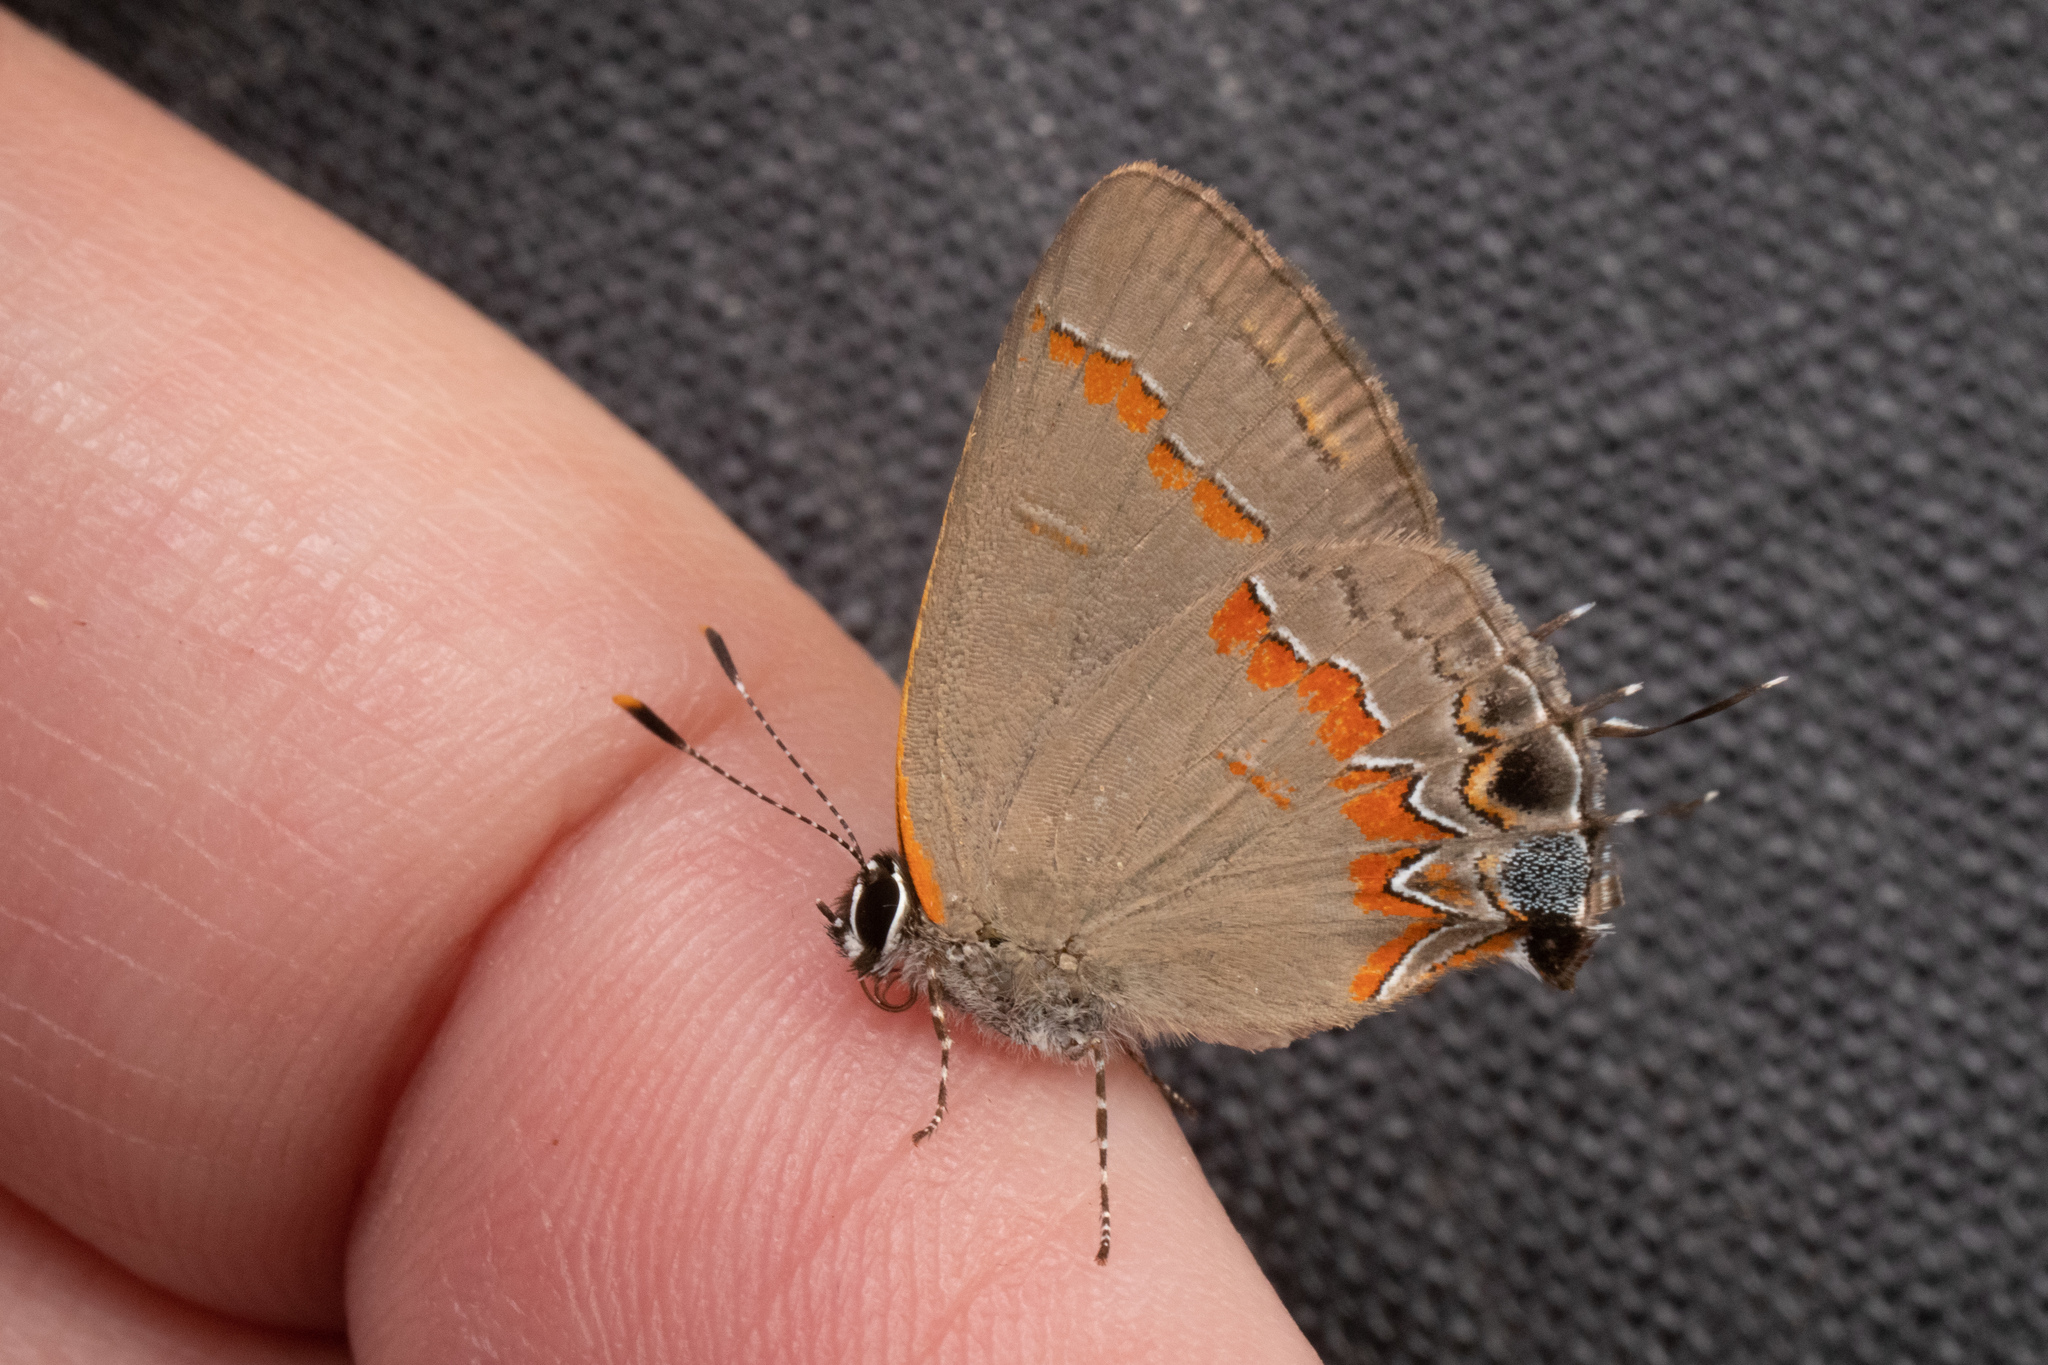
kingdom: Animalia
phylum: Arthropoda
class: Insecta
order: Lepidoptera
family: Lycaenidae
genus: Calycopis
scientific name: Calycopis cecrops
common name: Red-banded hairstreak
